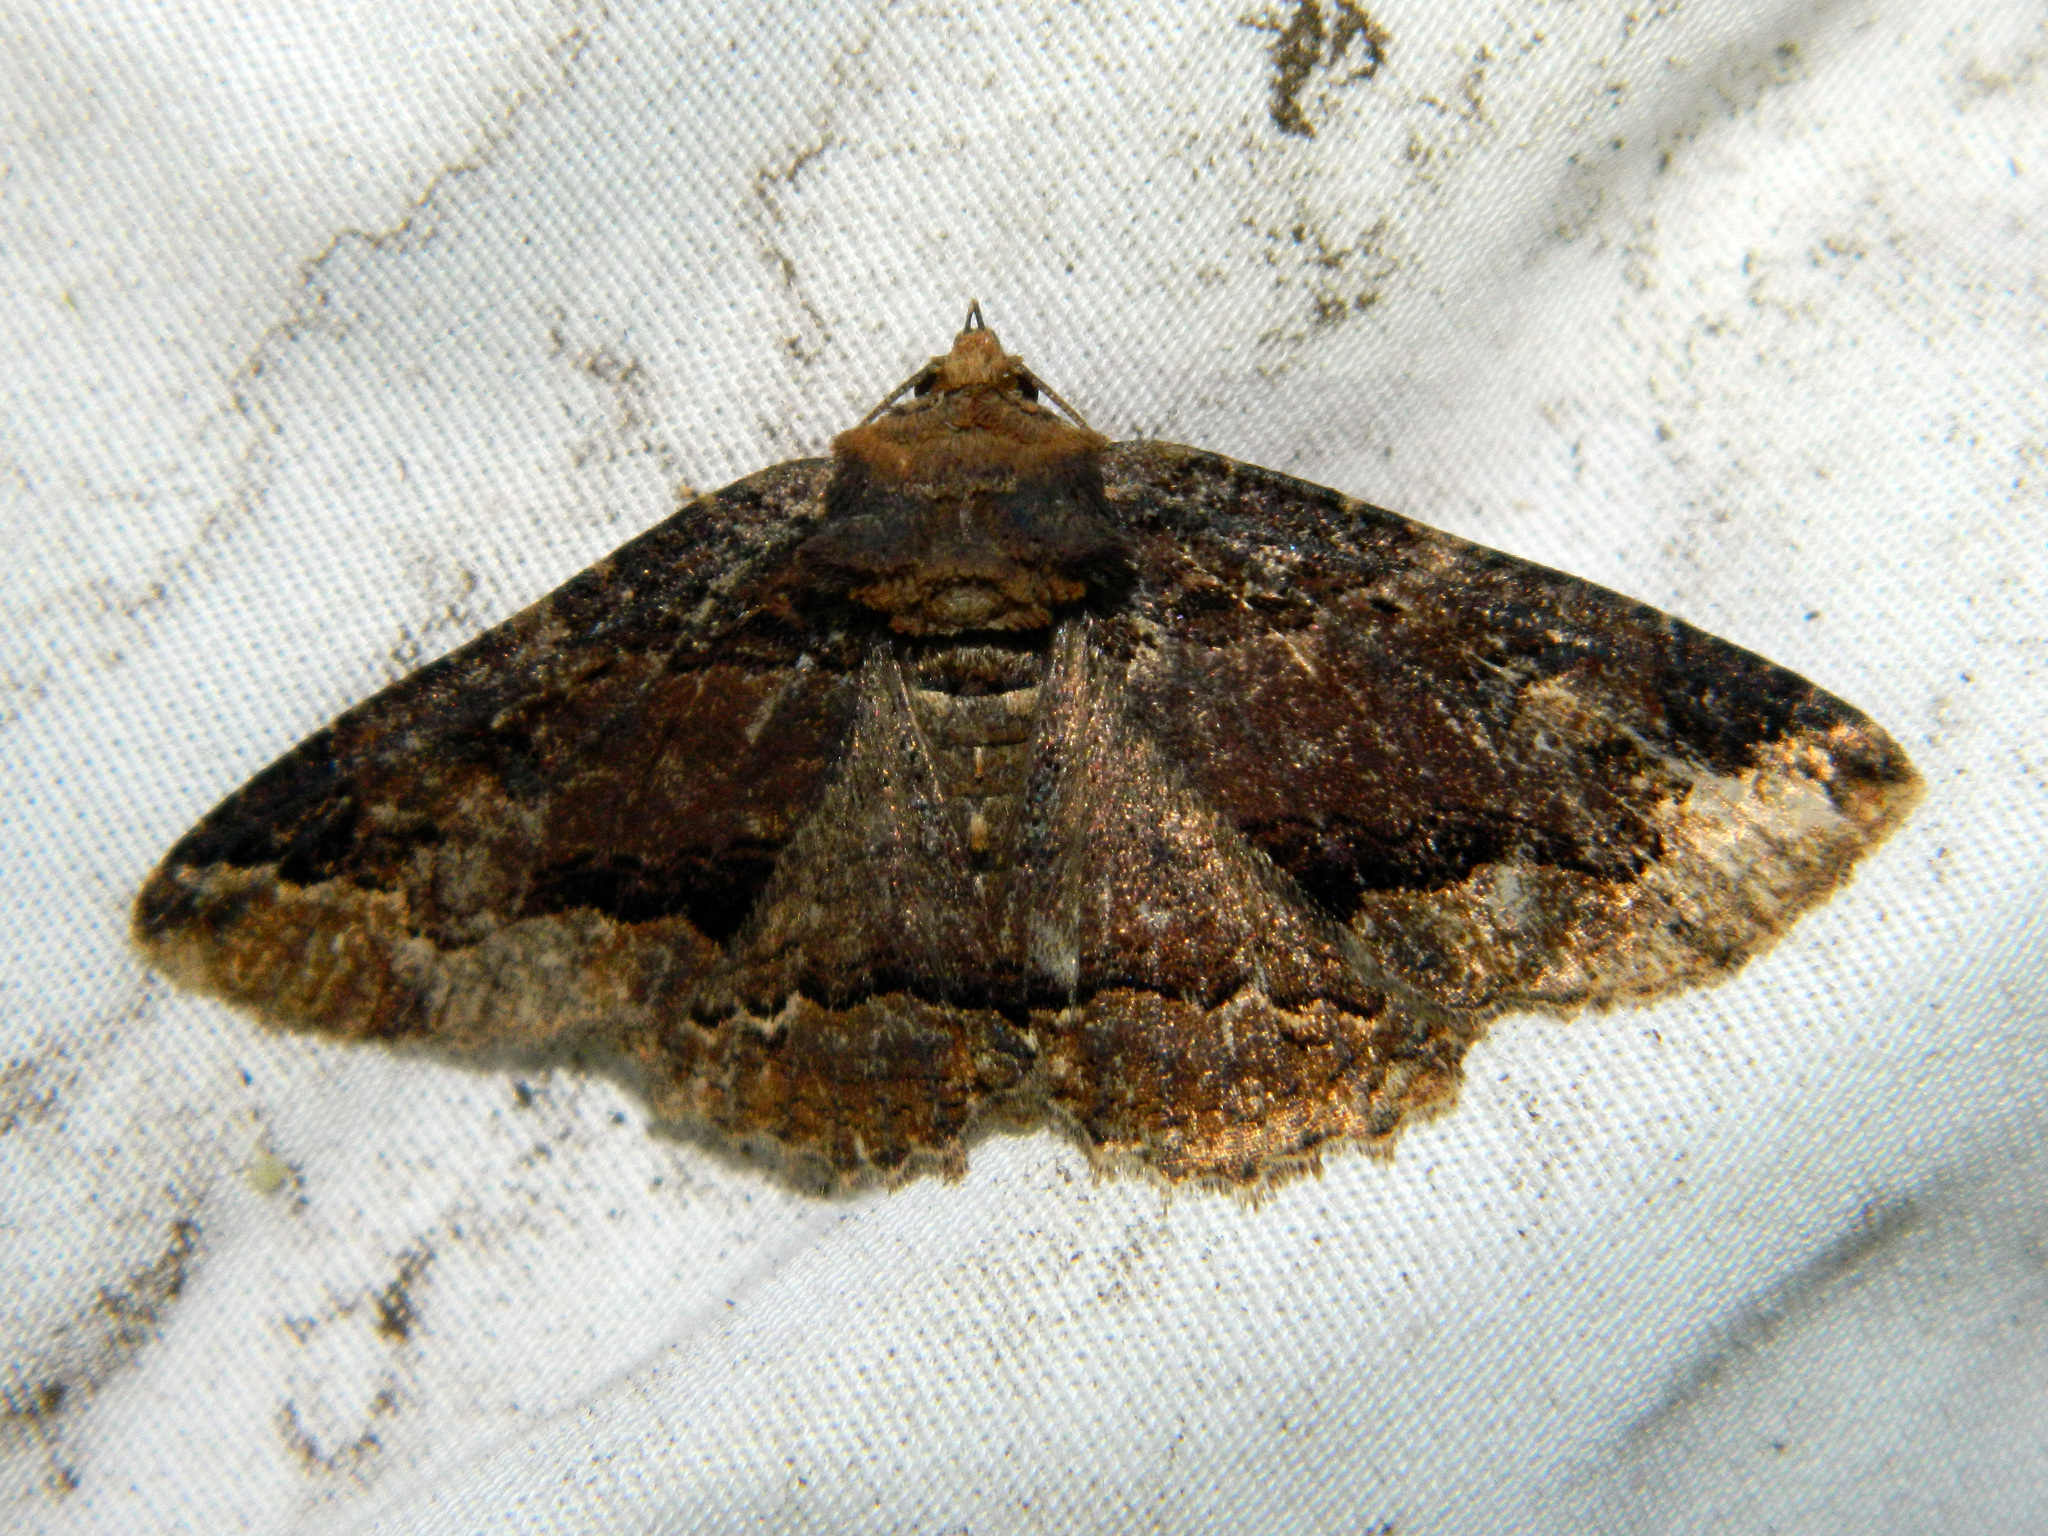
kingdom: Animalia
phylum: Arthropoda
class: Insecta
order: Lepidoptera
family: Erebidae
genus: Zale
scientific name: Zale minerea
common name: Colorful zale moth
